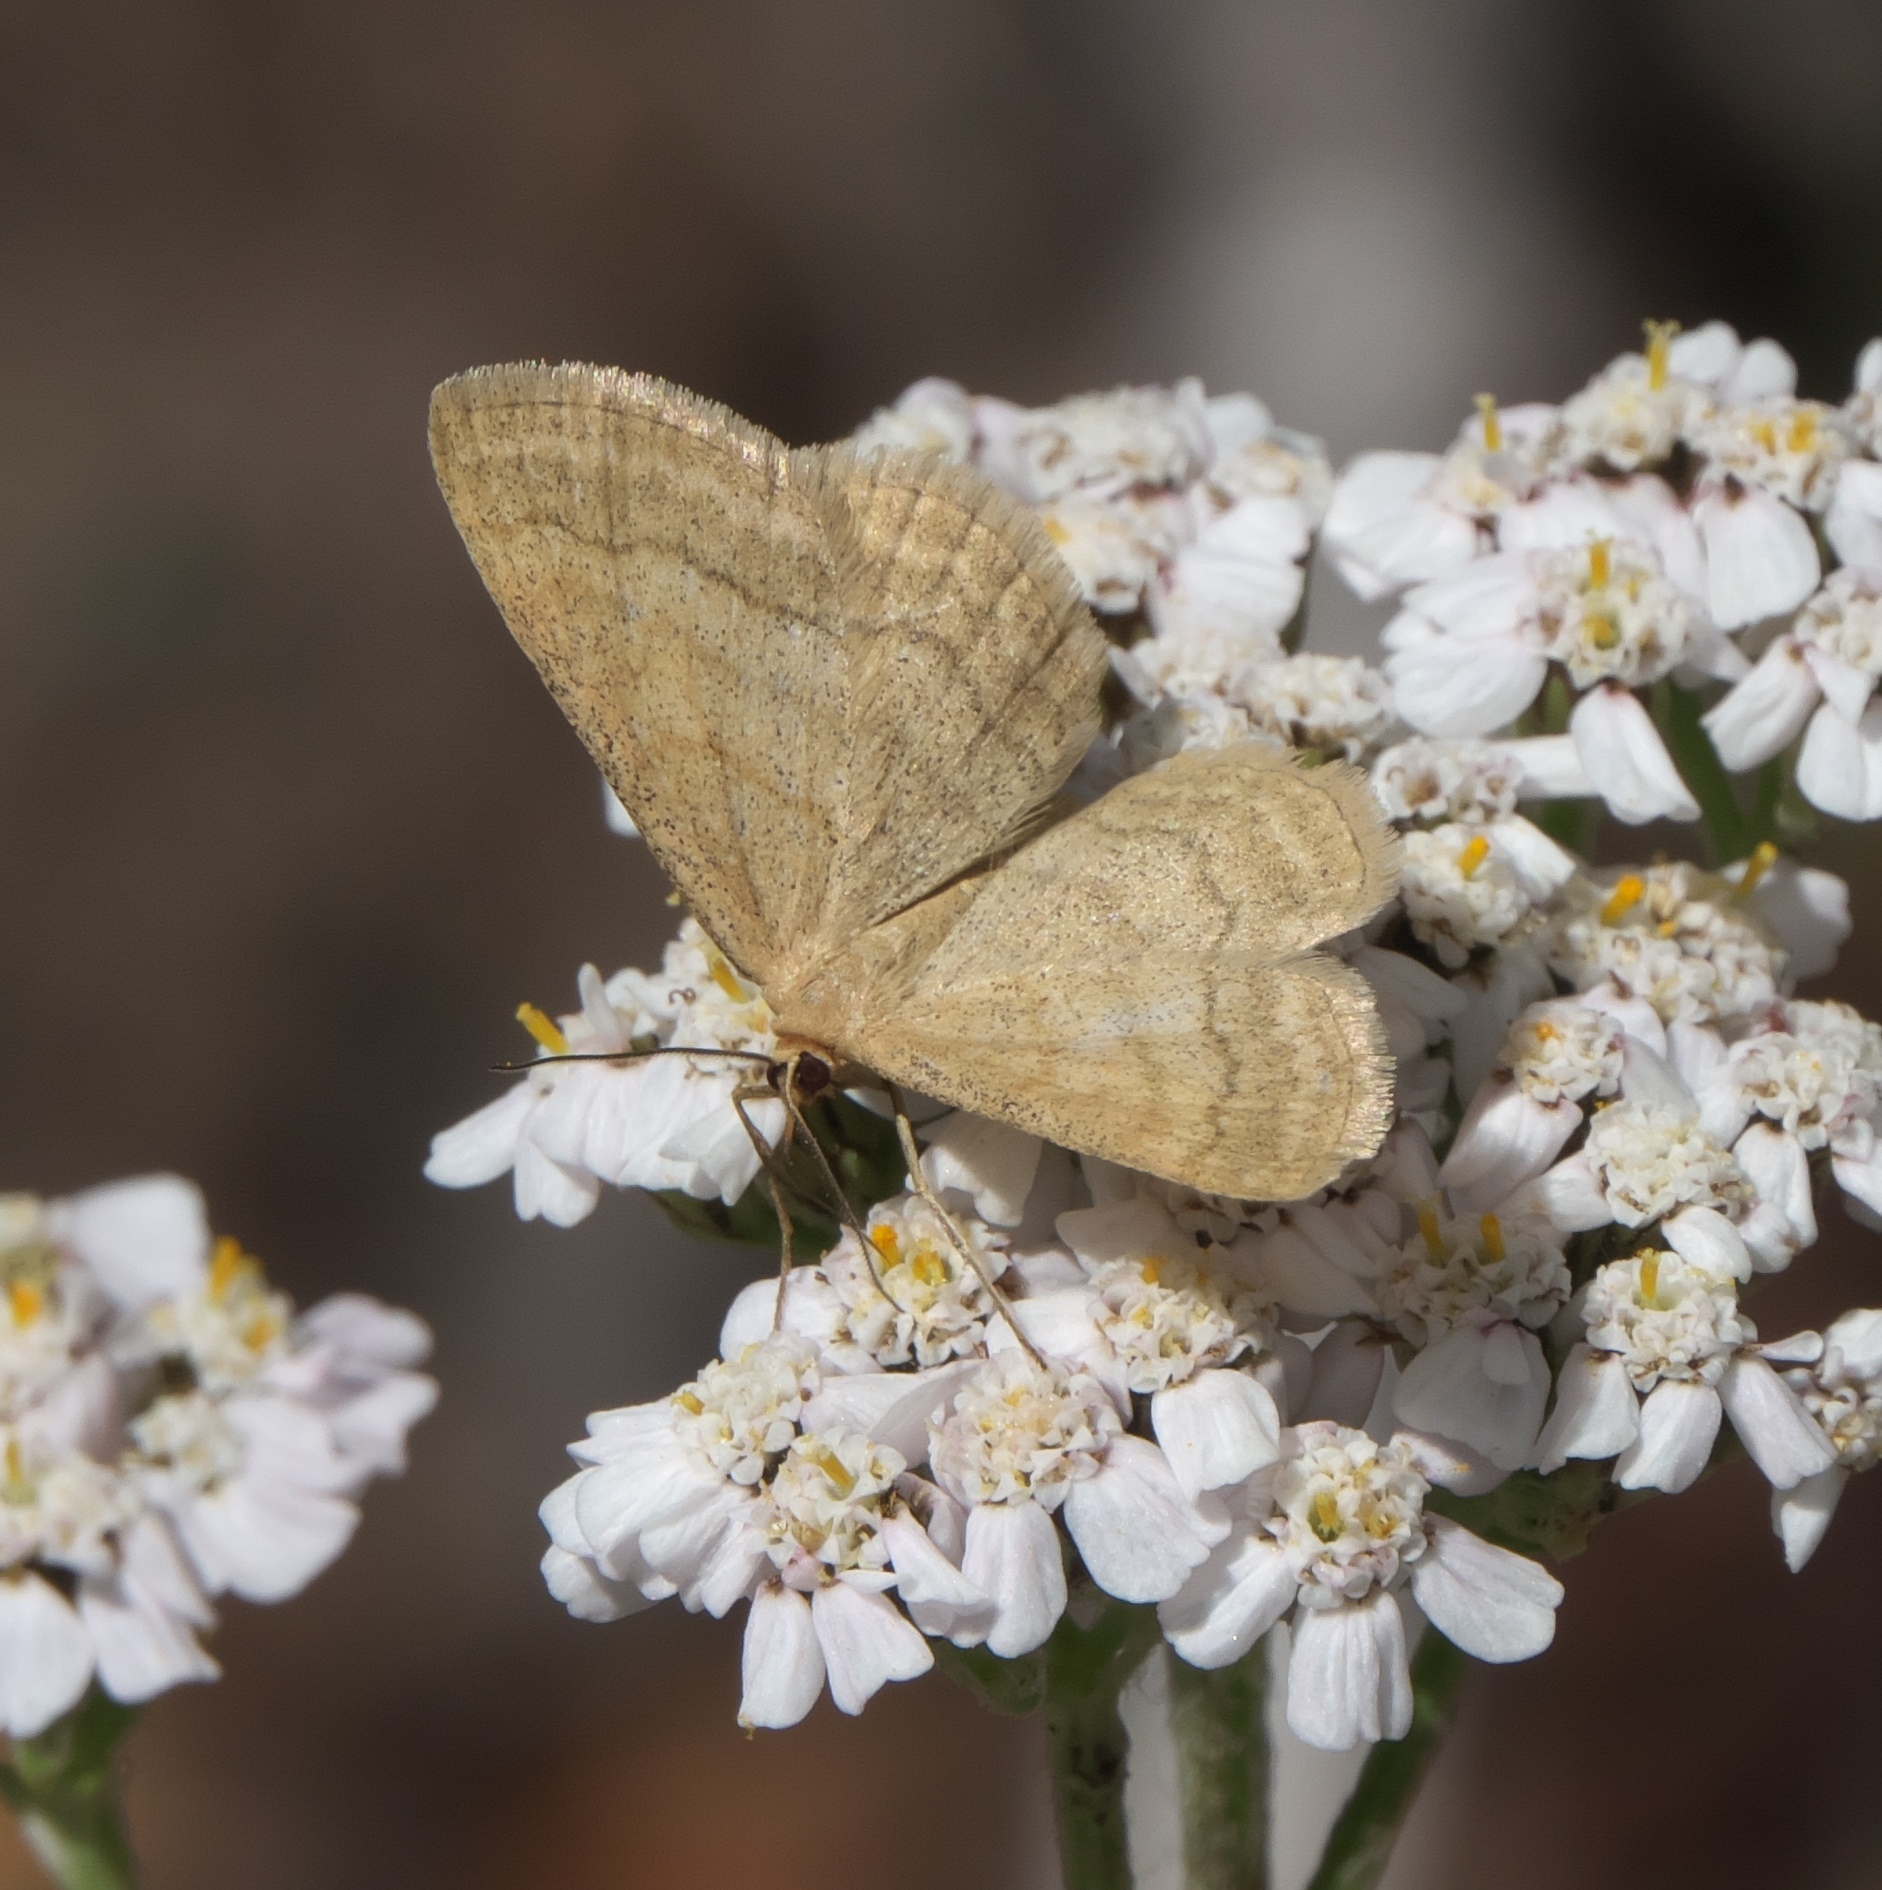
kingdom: Animalia
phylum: Arthropoda
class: Insecta
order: Lepidoptera
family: Geometridae
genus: Scopula
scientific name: Scopula luteolata
